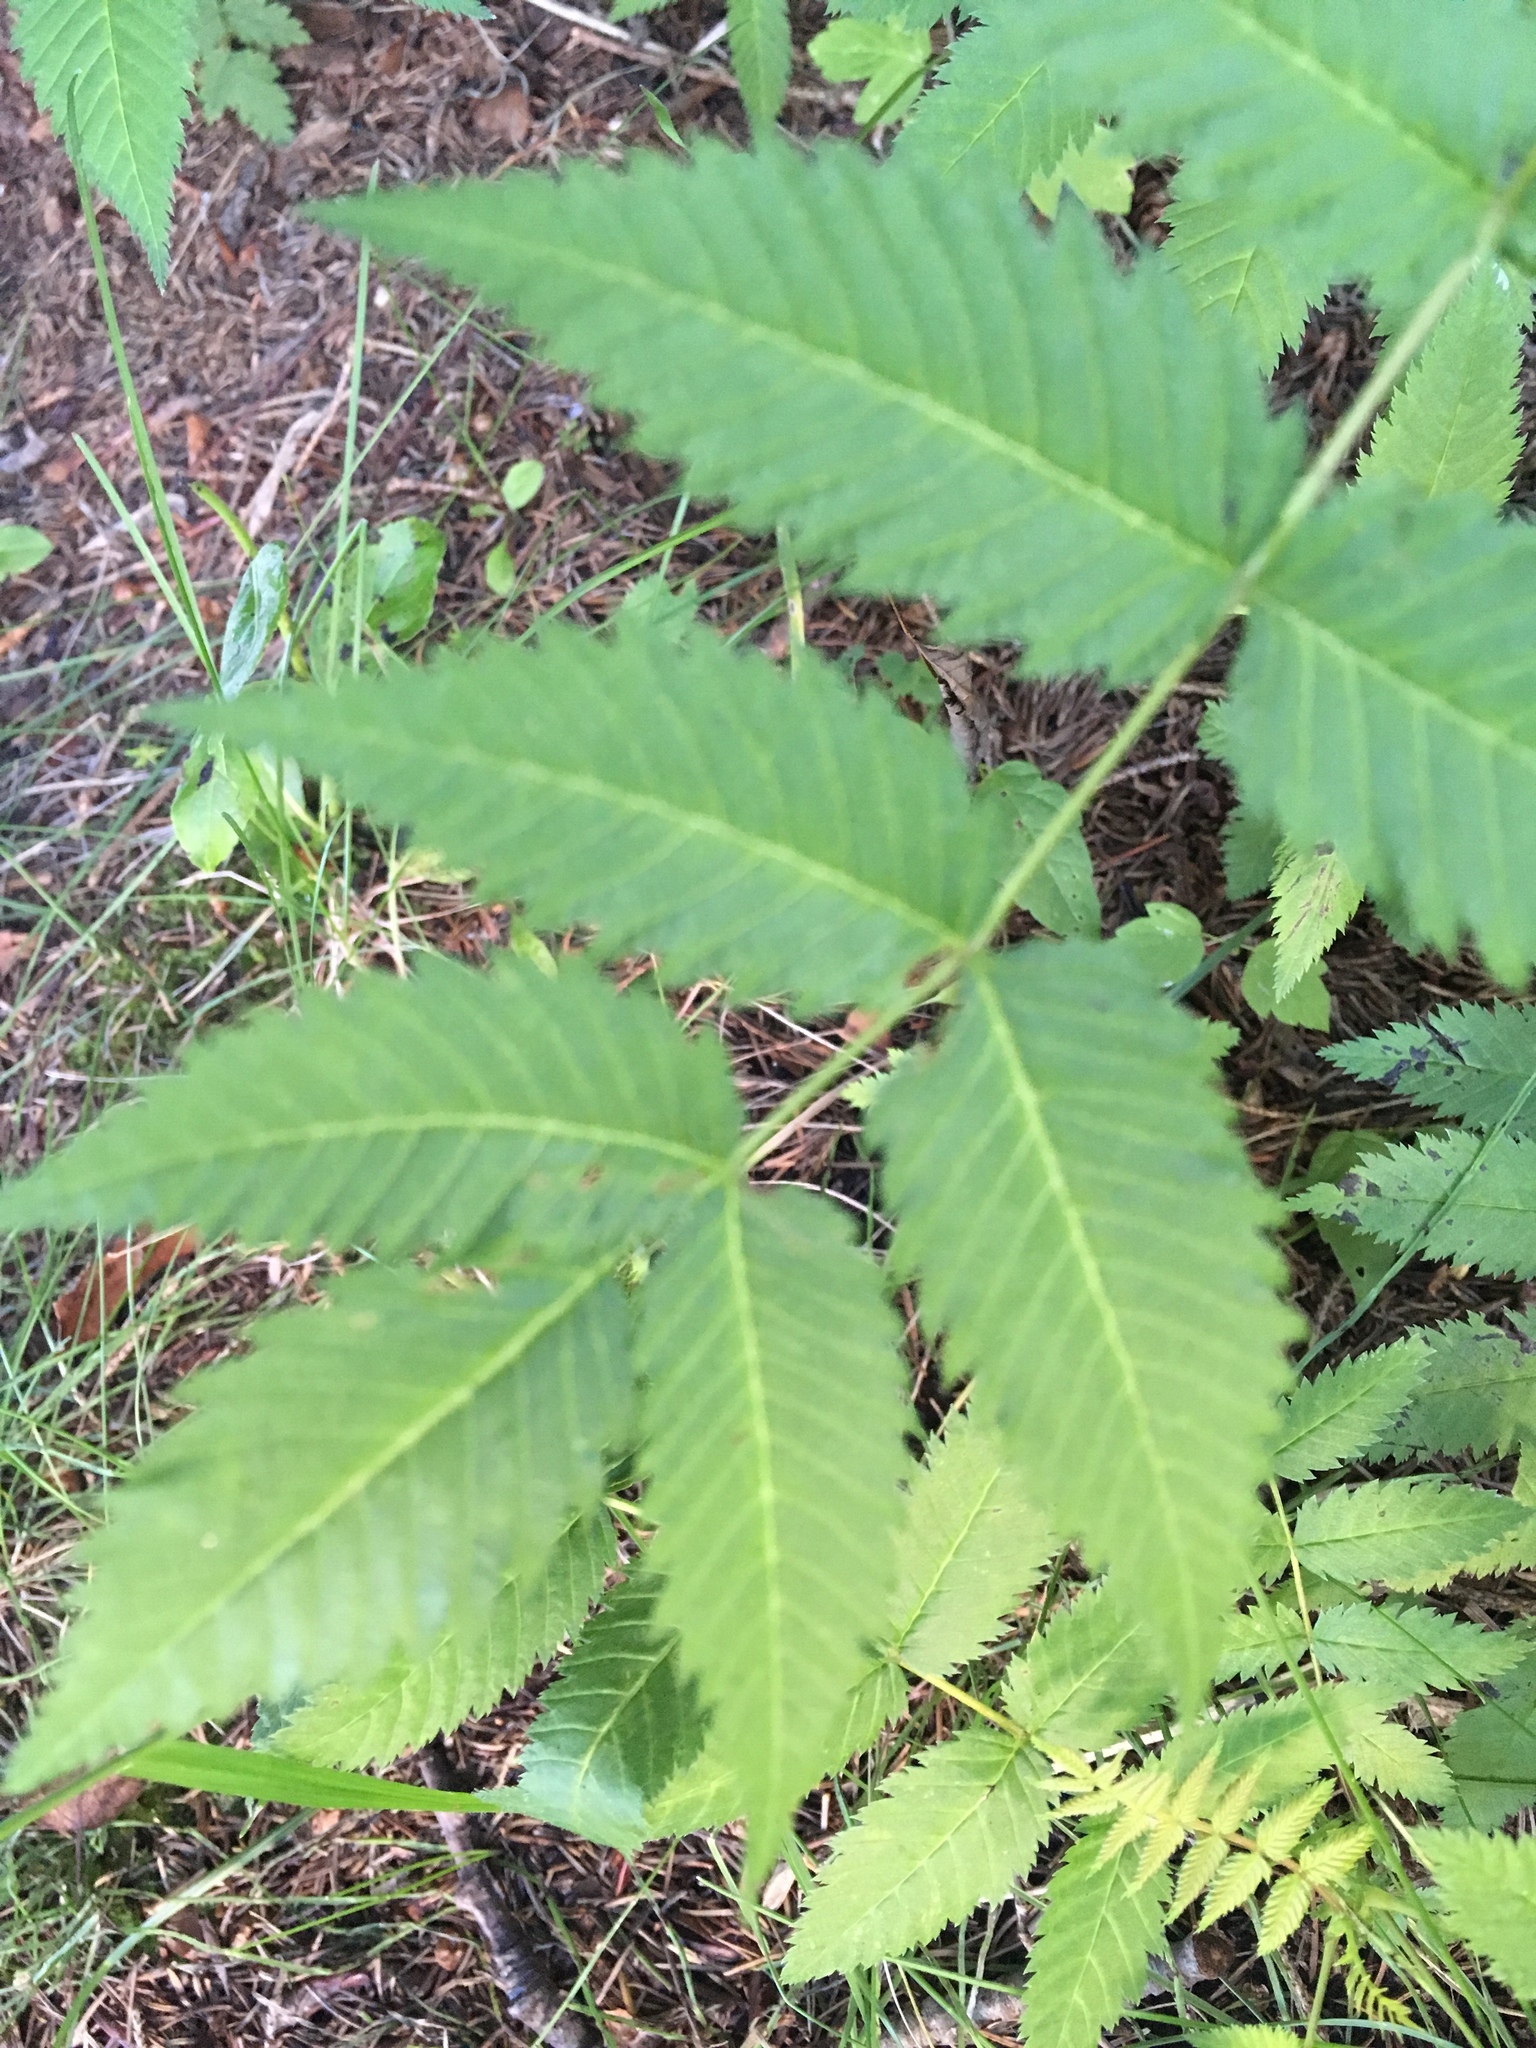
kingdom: Plantae
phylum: Tracheophyta
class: Magnoliopsida
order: Rosales
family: Rosaceae
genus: Sorbaria
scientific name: Sorbaria sorbifolia
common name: False spiraea
